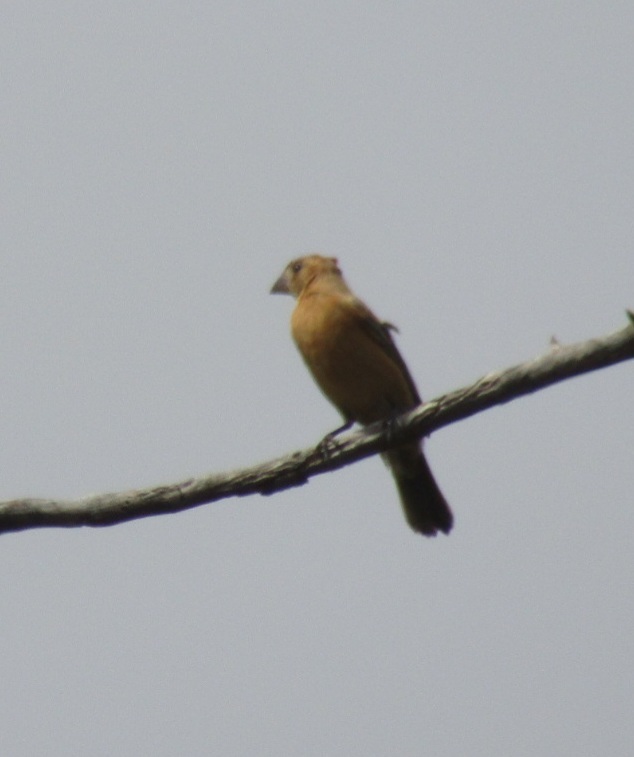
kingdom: Animalia
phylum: Chordata
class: Aves
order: Passeriformes
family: Cardinalidae
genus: Passerina
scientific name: Passerina caerulea
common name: Blue grosbeak
